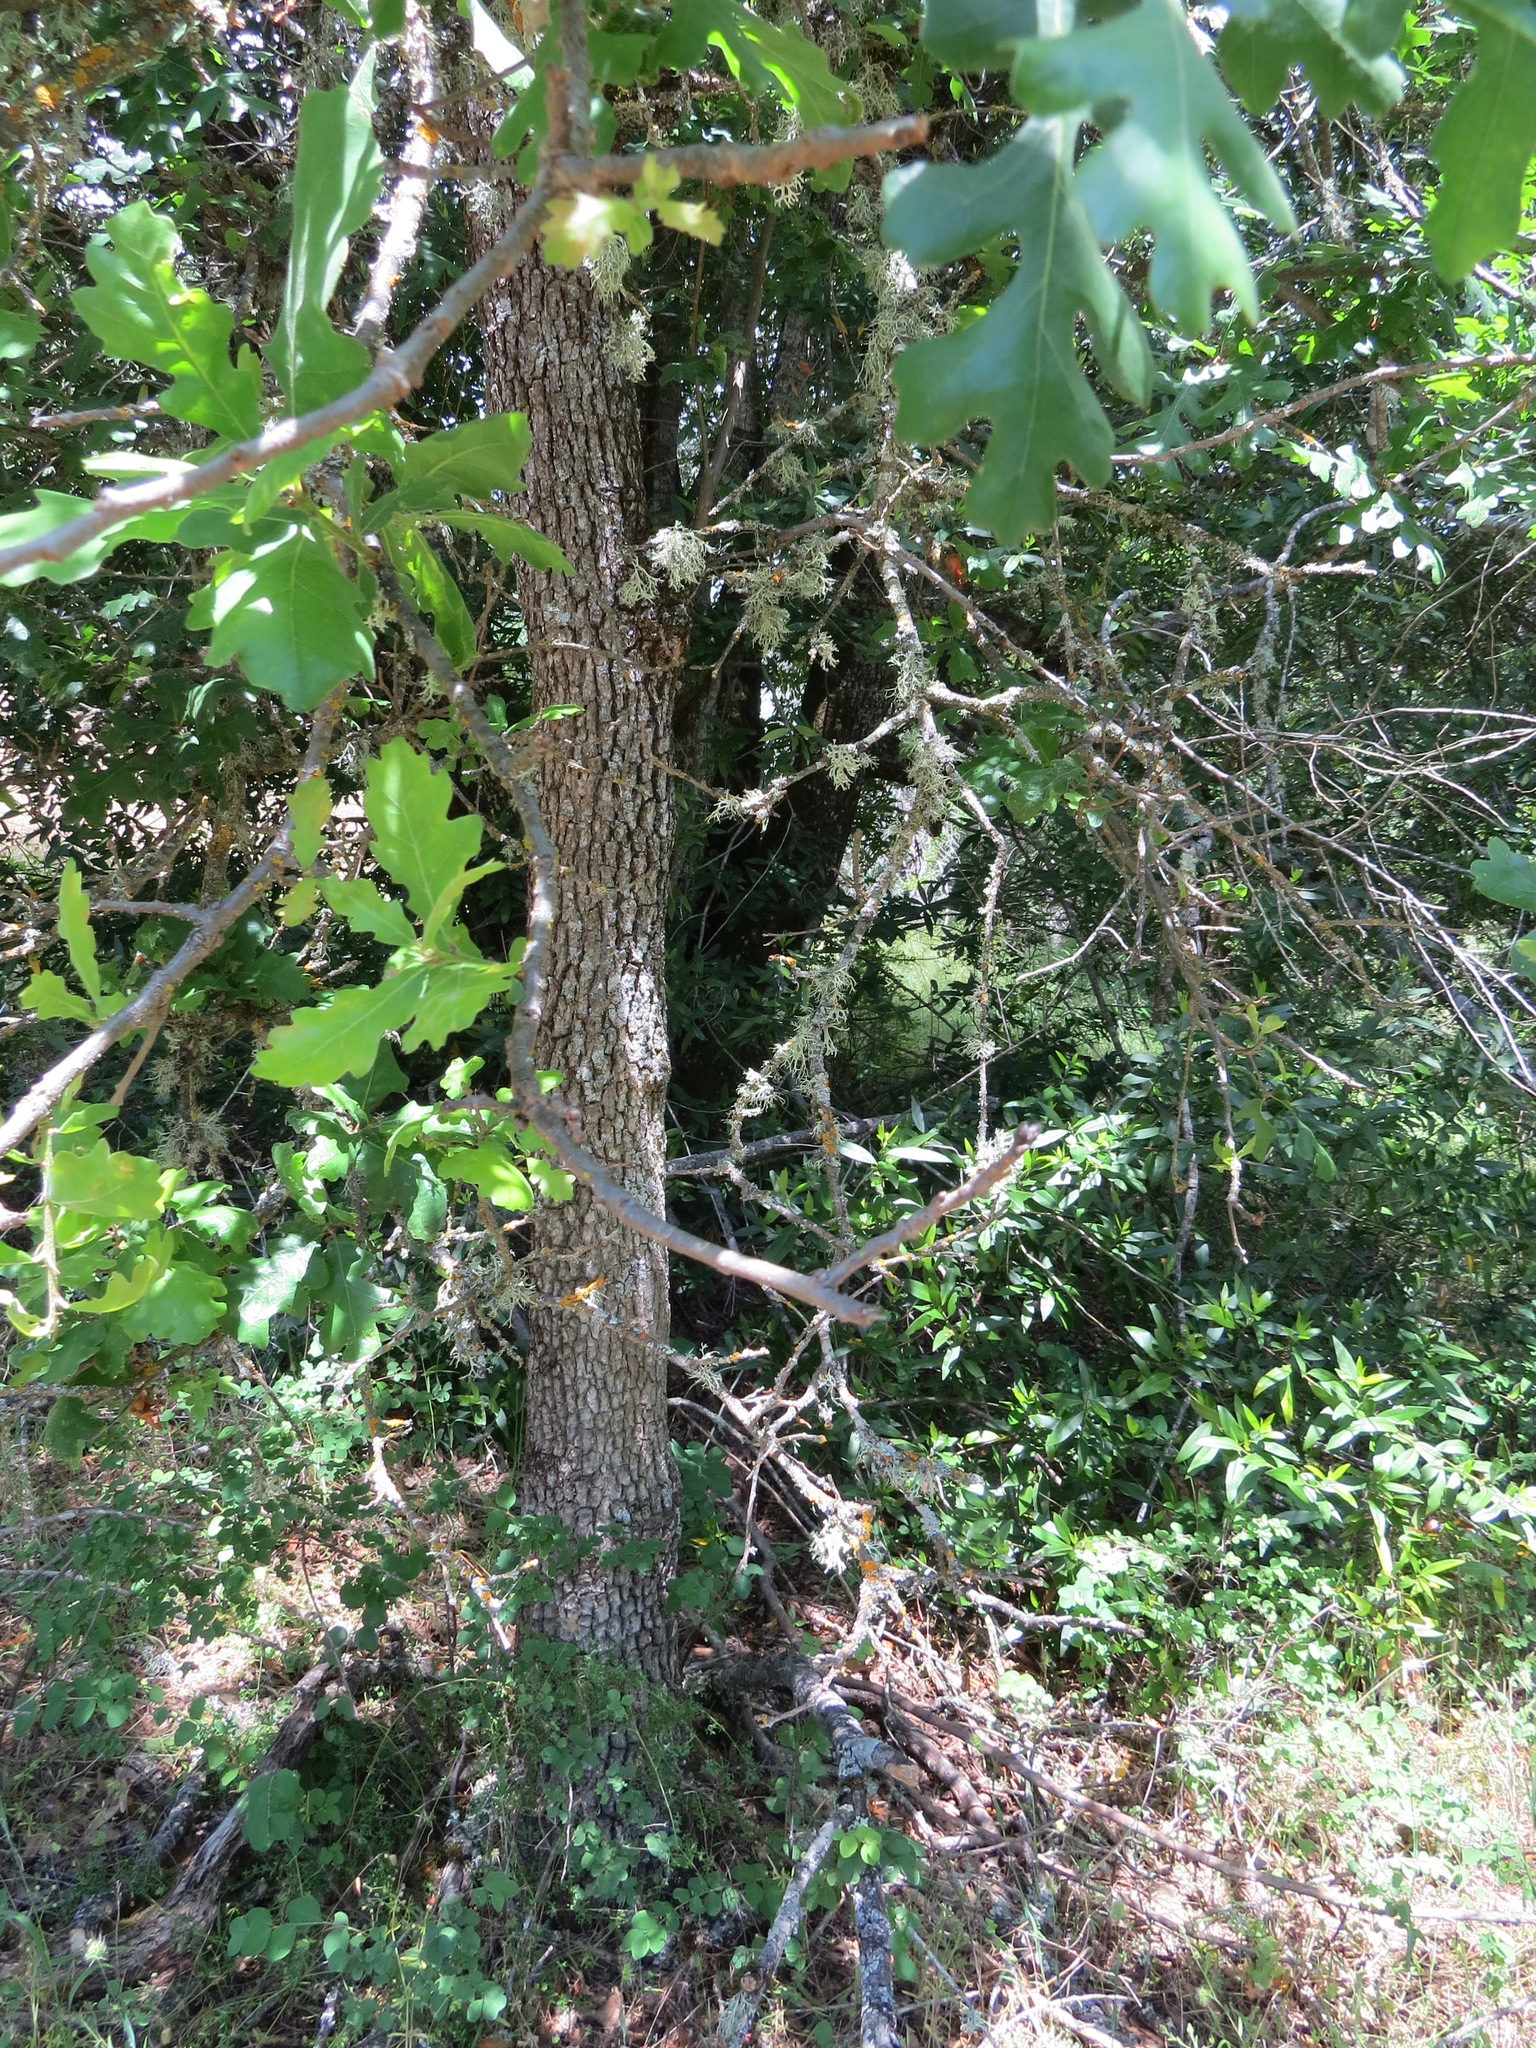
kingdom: Plantae
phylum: Tracheophyta
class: Magnoliopsida
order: Fagales
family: Fagaceae
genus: Quercus
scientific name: Quercus lobata
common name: Valley oak
